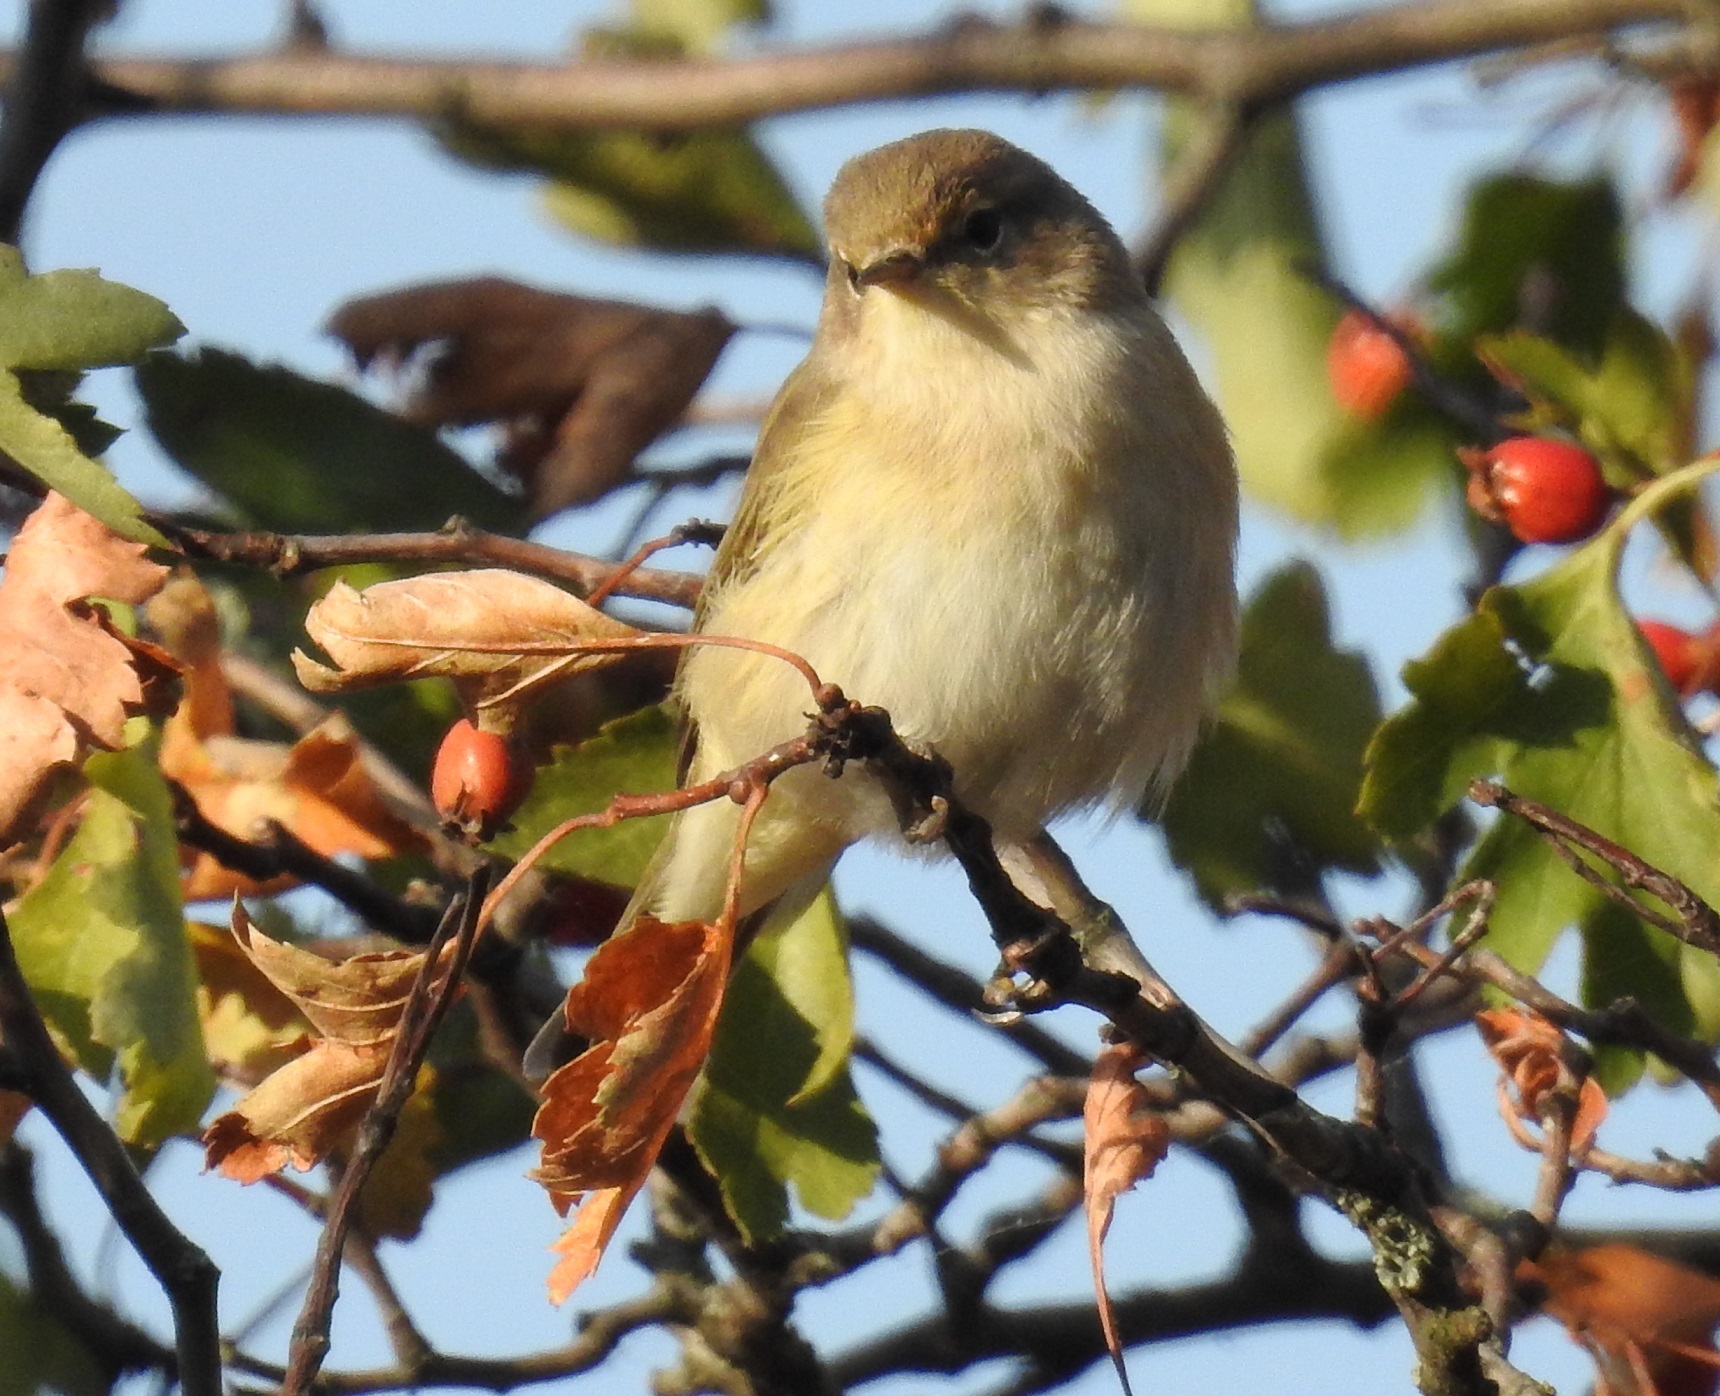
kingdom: Animalia
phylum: Chordata
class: Aves
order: Passeriformes
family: Phylloscopidae
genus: Phylloscopus
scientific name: Phylloscopus collybita
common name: Common chiffchaff
